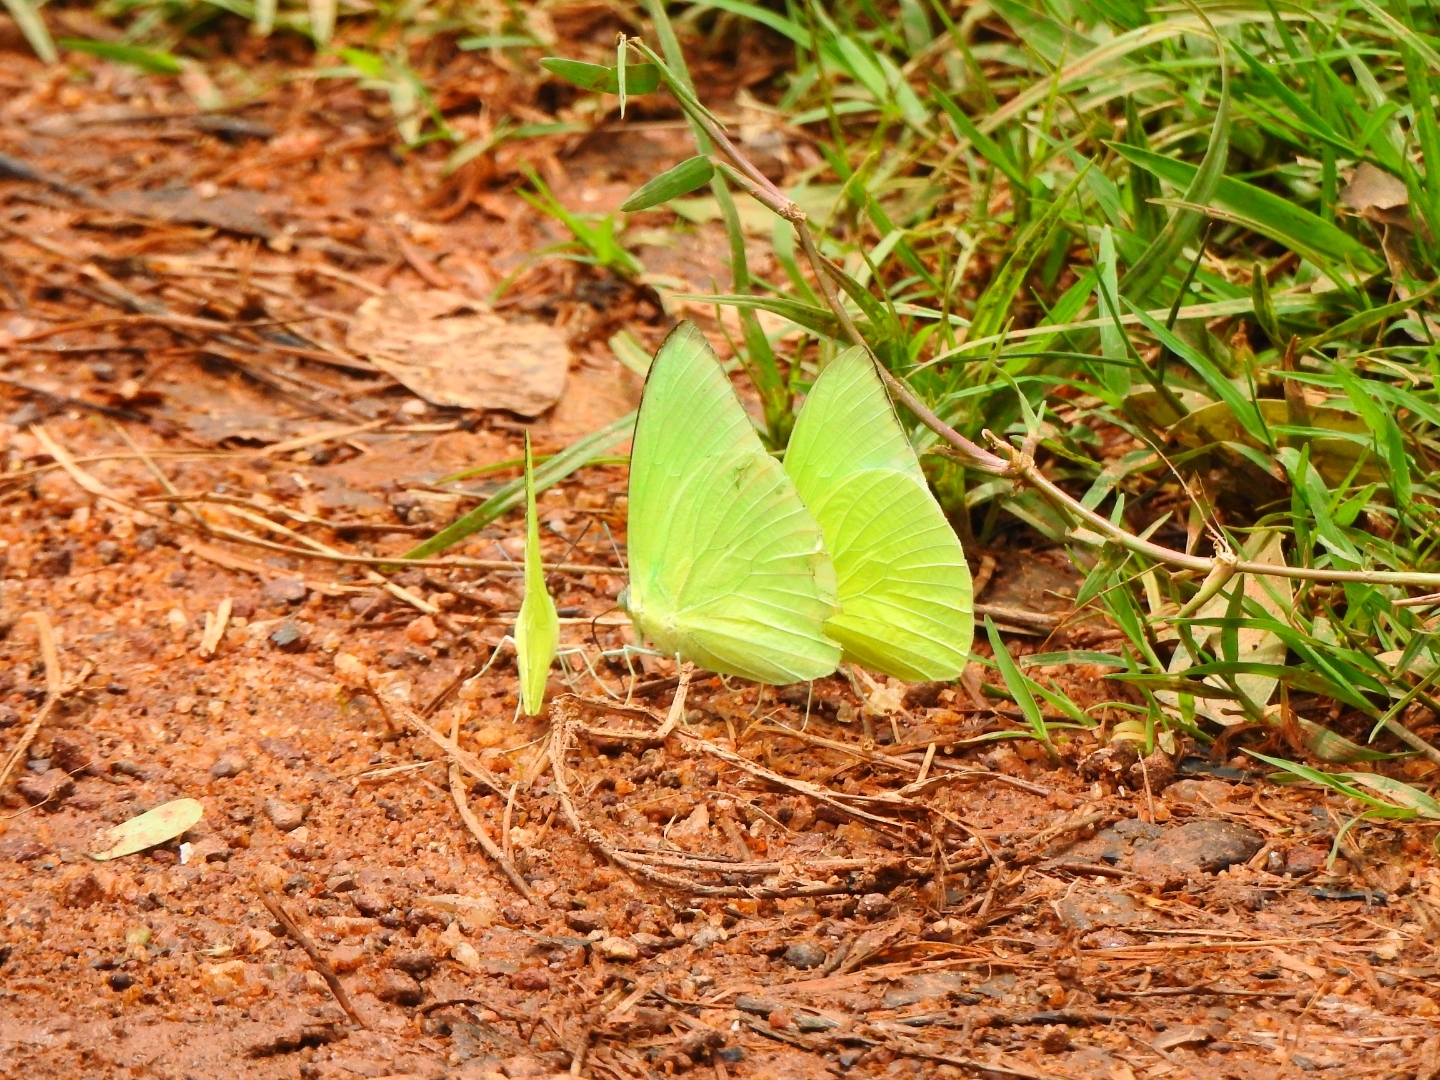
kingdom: Animalia
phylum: Arthropoda
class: Insecta
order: Lepidoptera
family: Pieridae
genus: Catopsilia
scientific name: Catopsilia pomona
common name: Common emigrant
